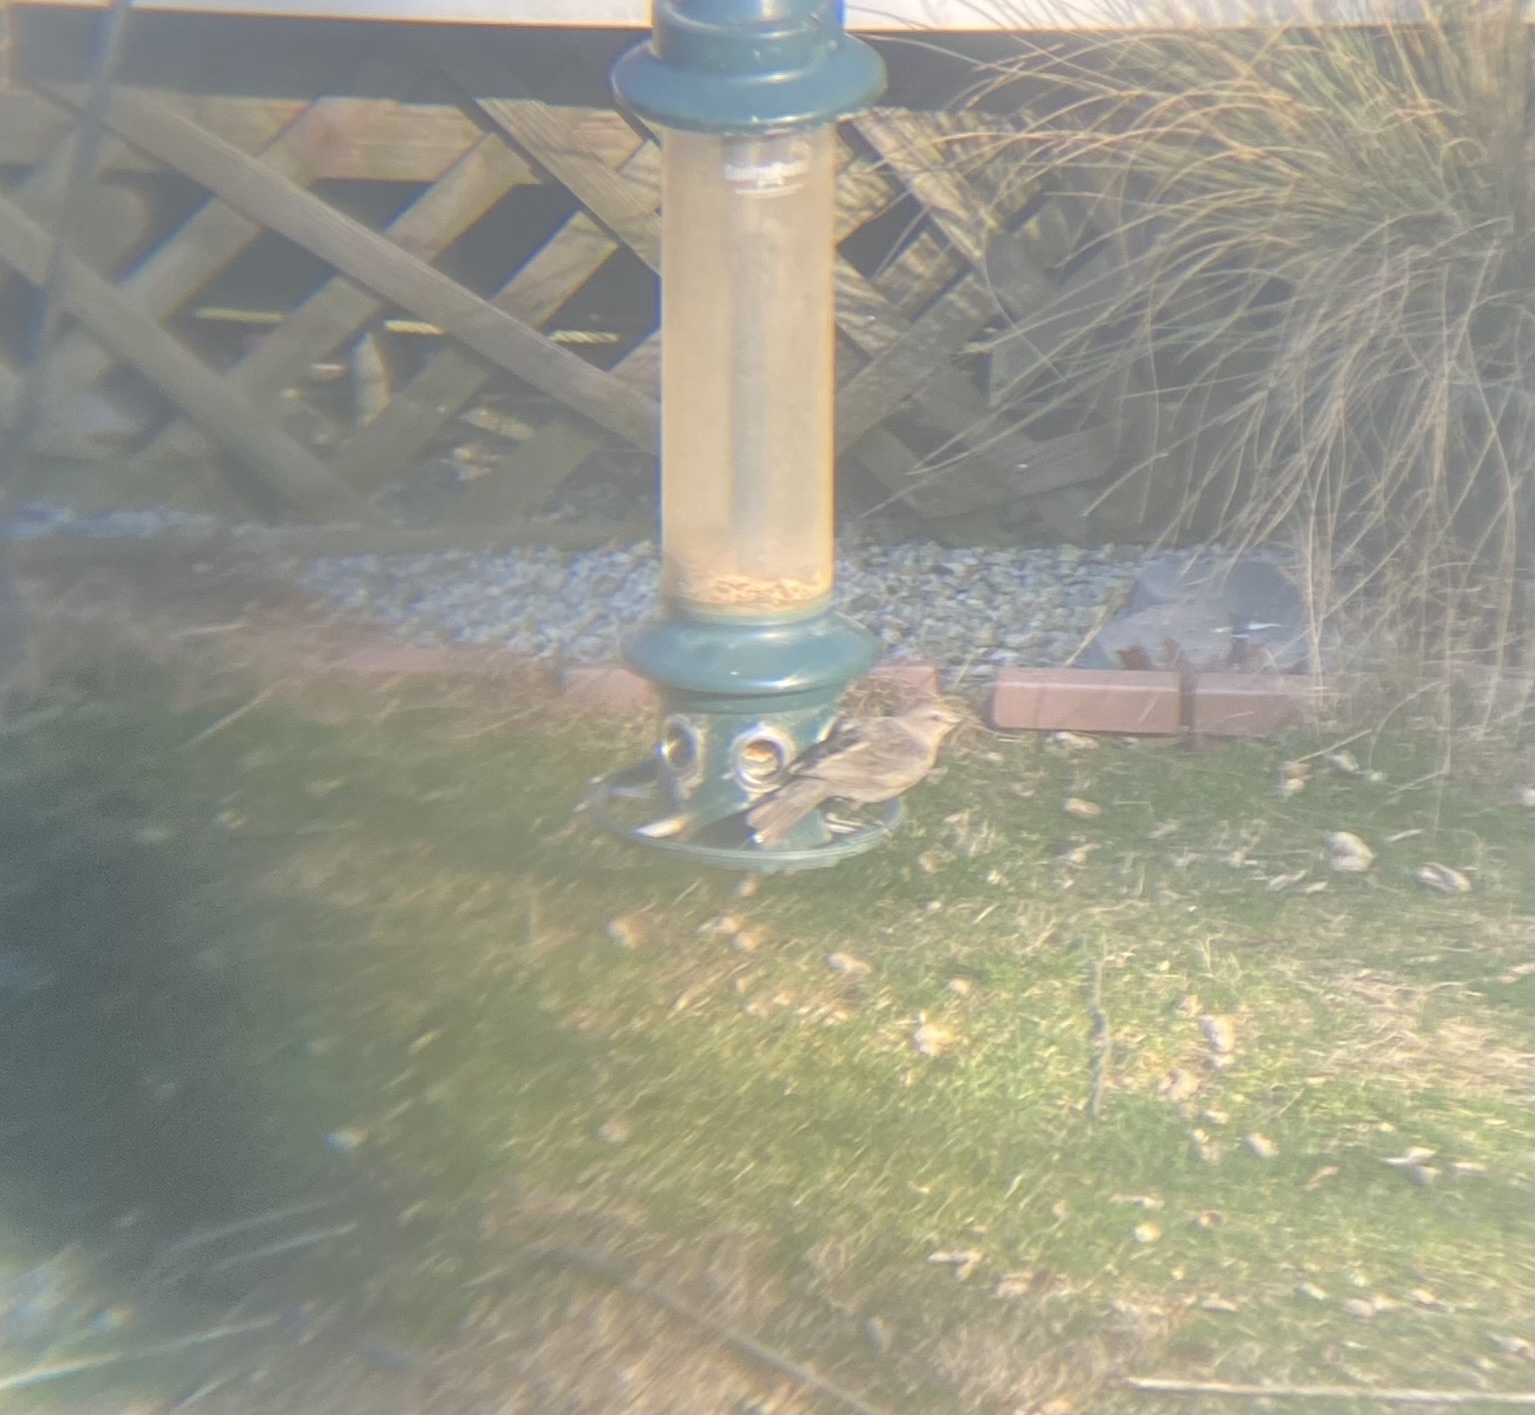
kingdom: Animalia
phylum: Chordata
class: Aves
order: Passeriformes
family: Icteridae
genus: Molothrus
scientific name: Molothrus ater
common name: Brown-headed cowbird
